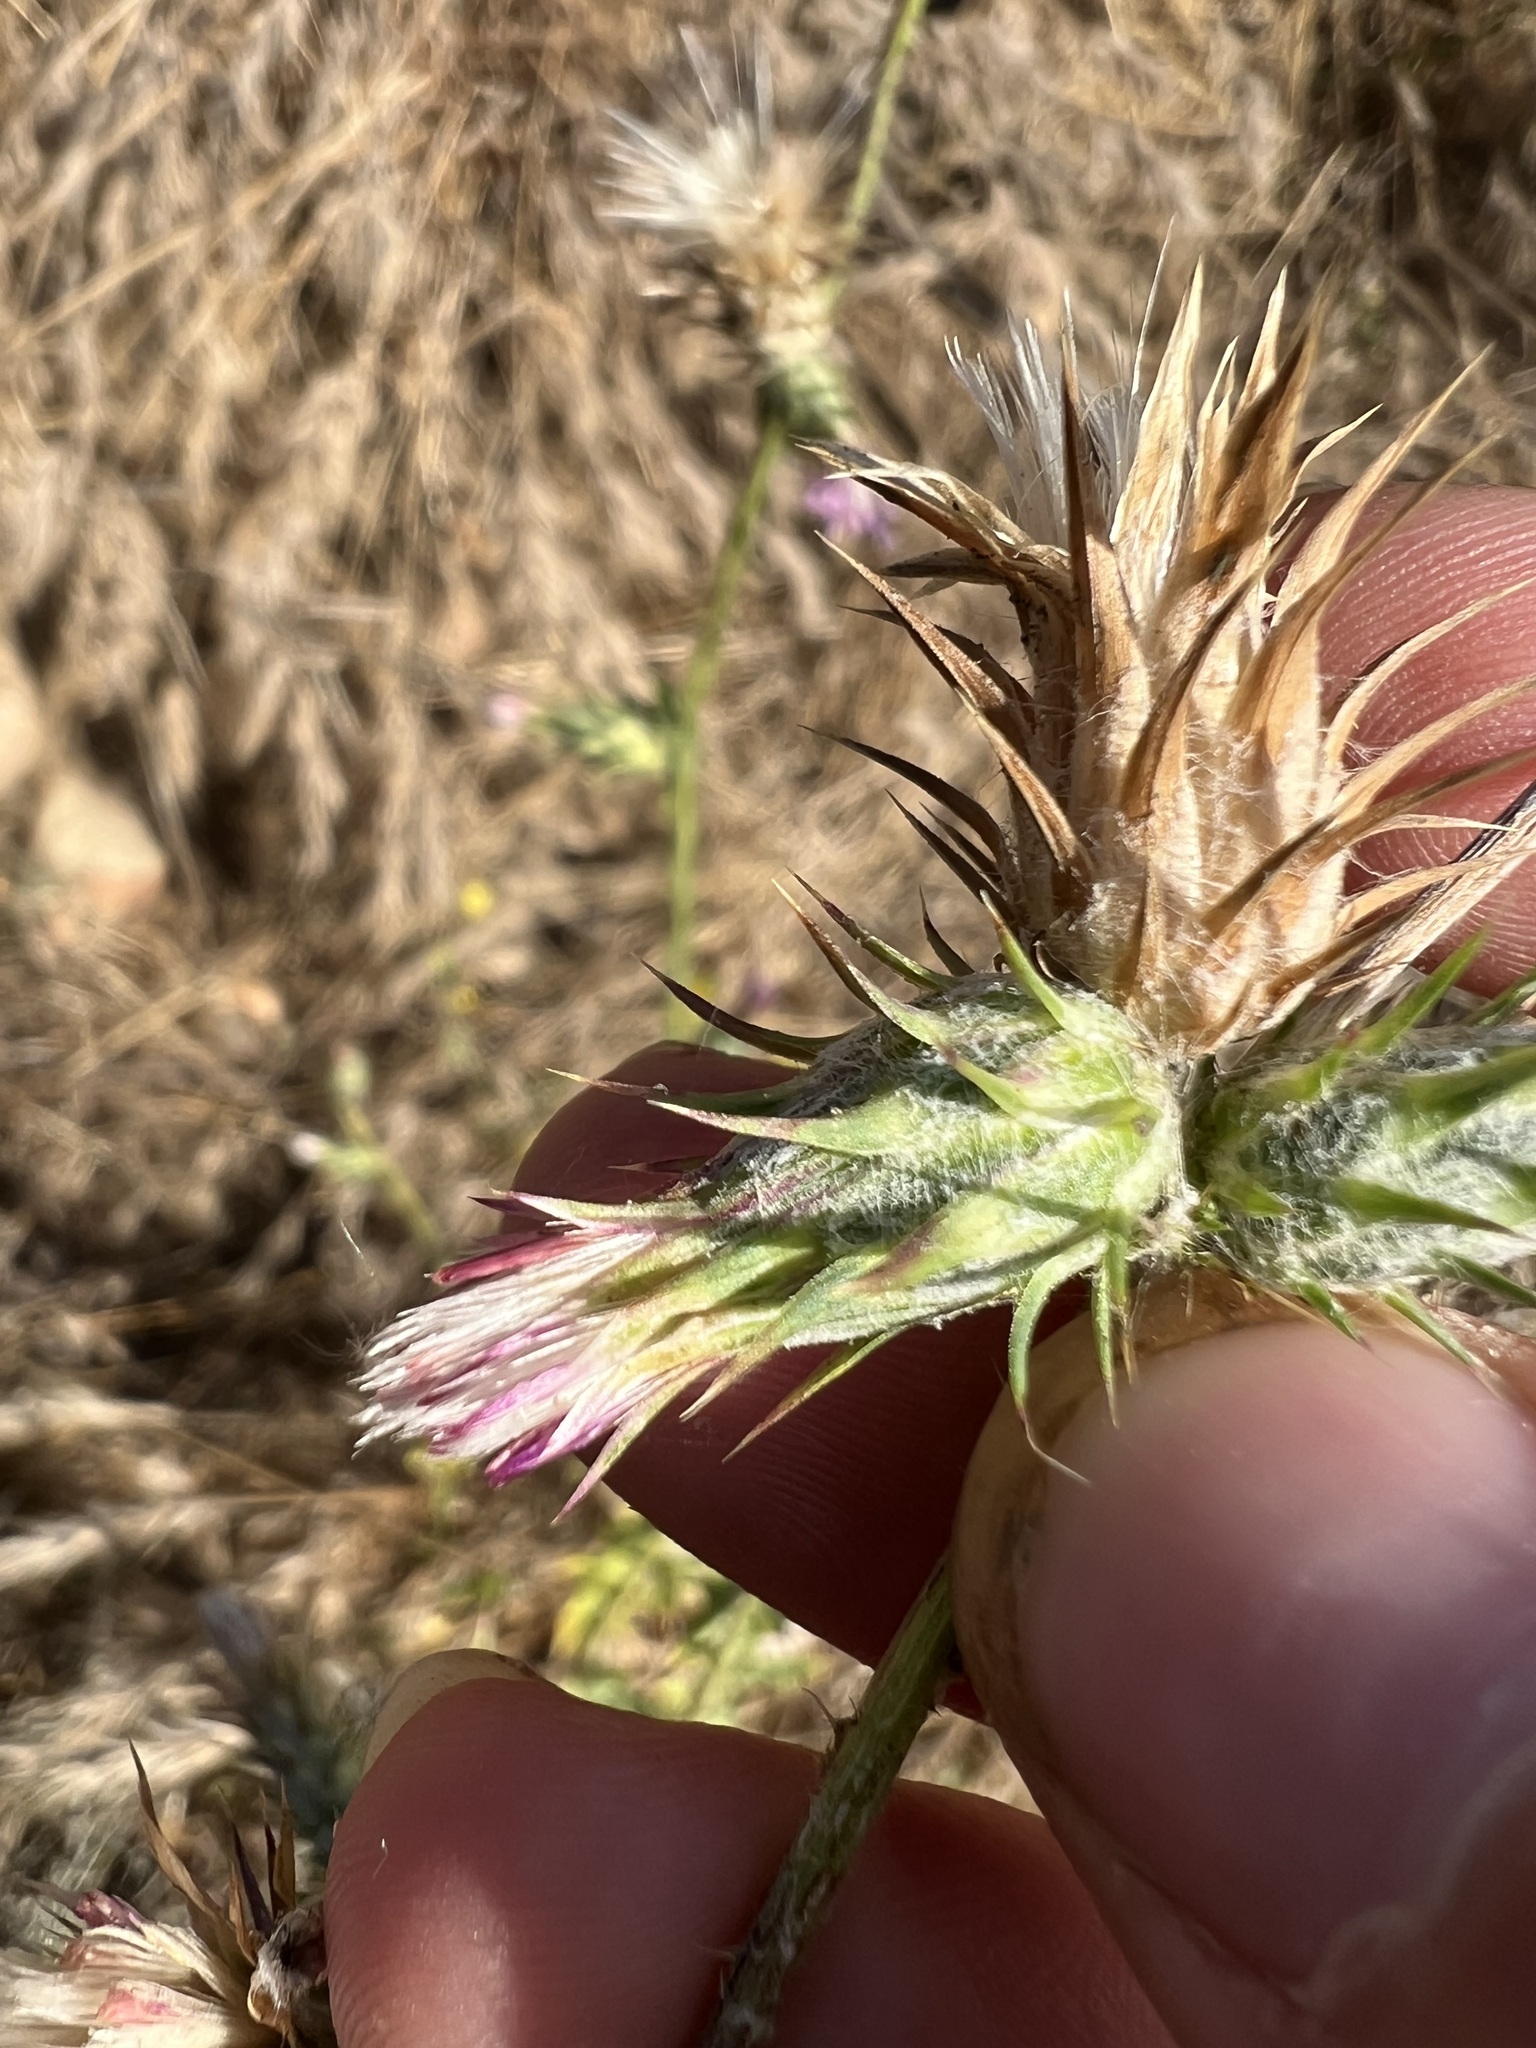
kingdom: Plantae
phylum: Tracheophyta
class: Magnoliopsida
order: Asterales
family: Asteraceae
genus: Carduus
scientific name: Carduus pycnocephalus
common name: Plymouth thistle
